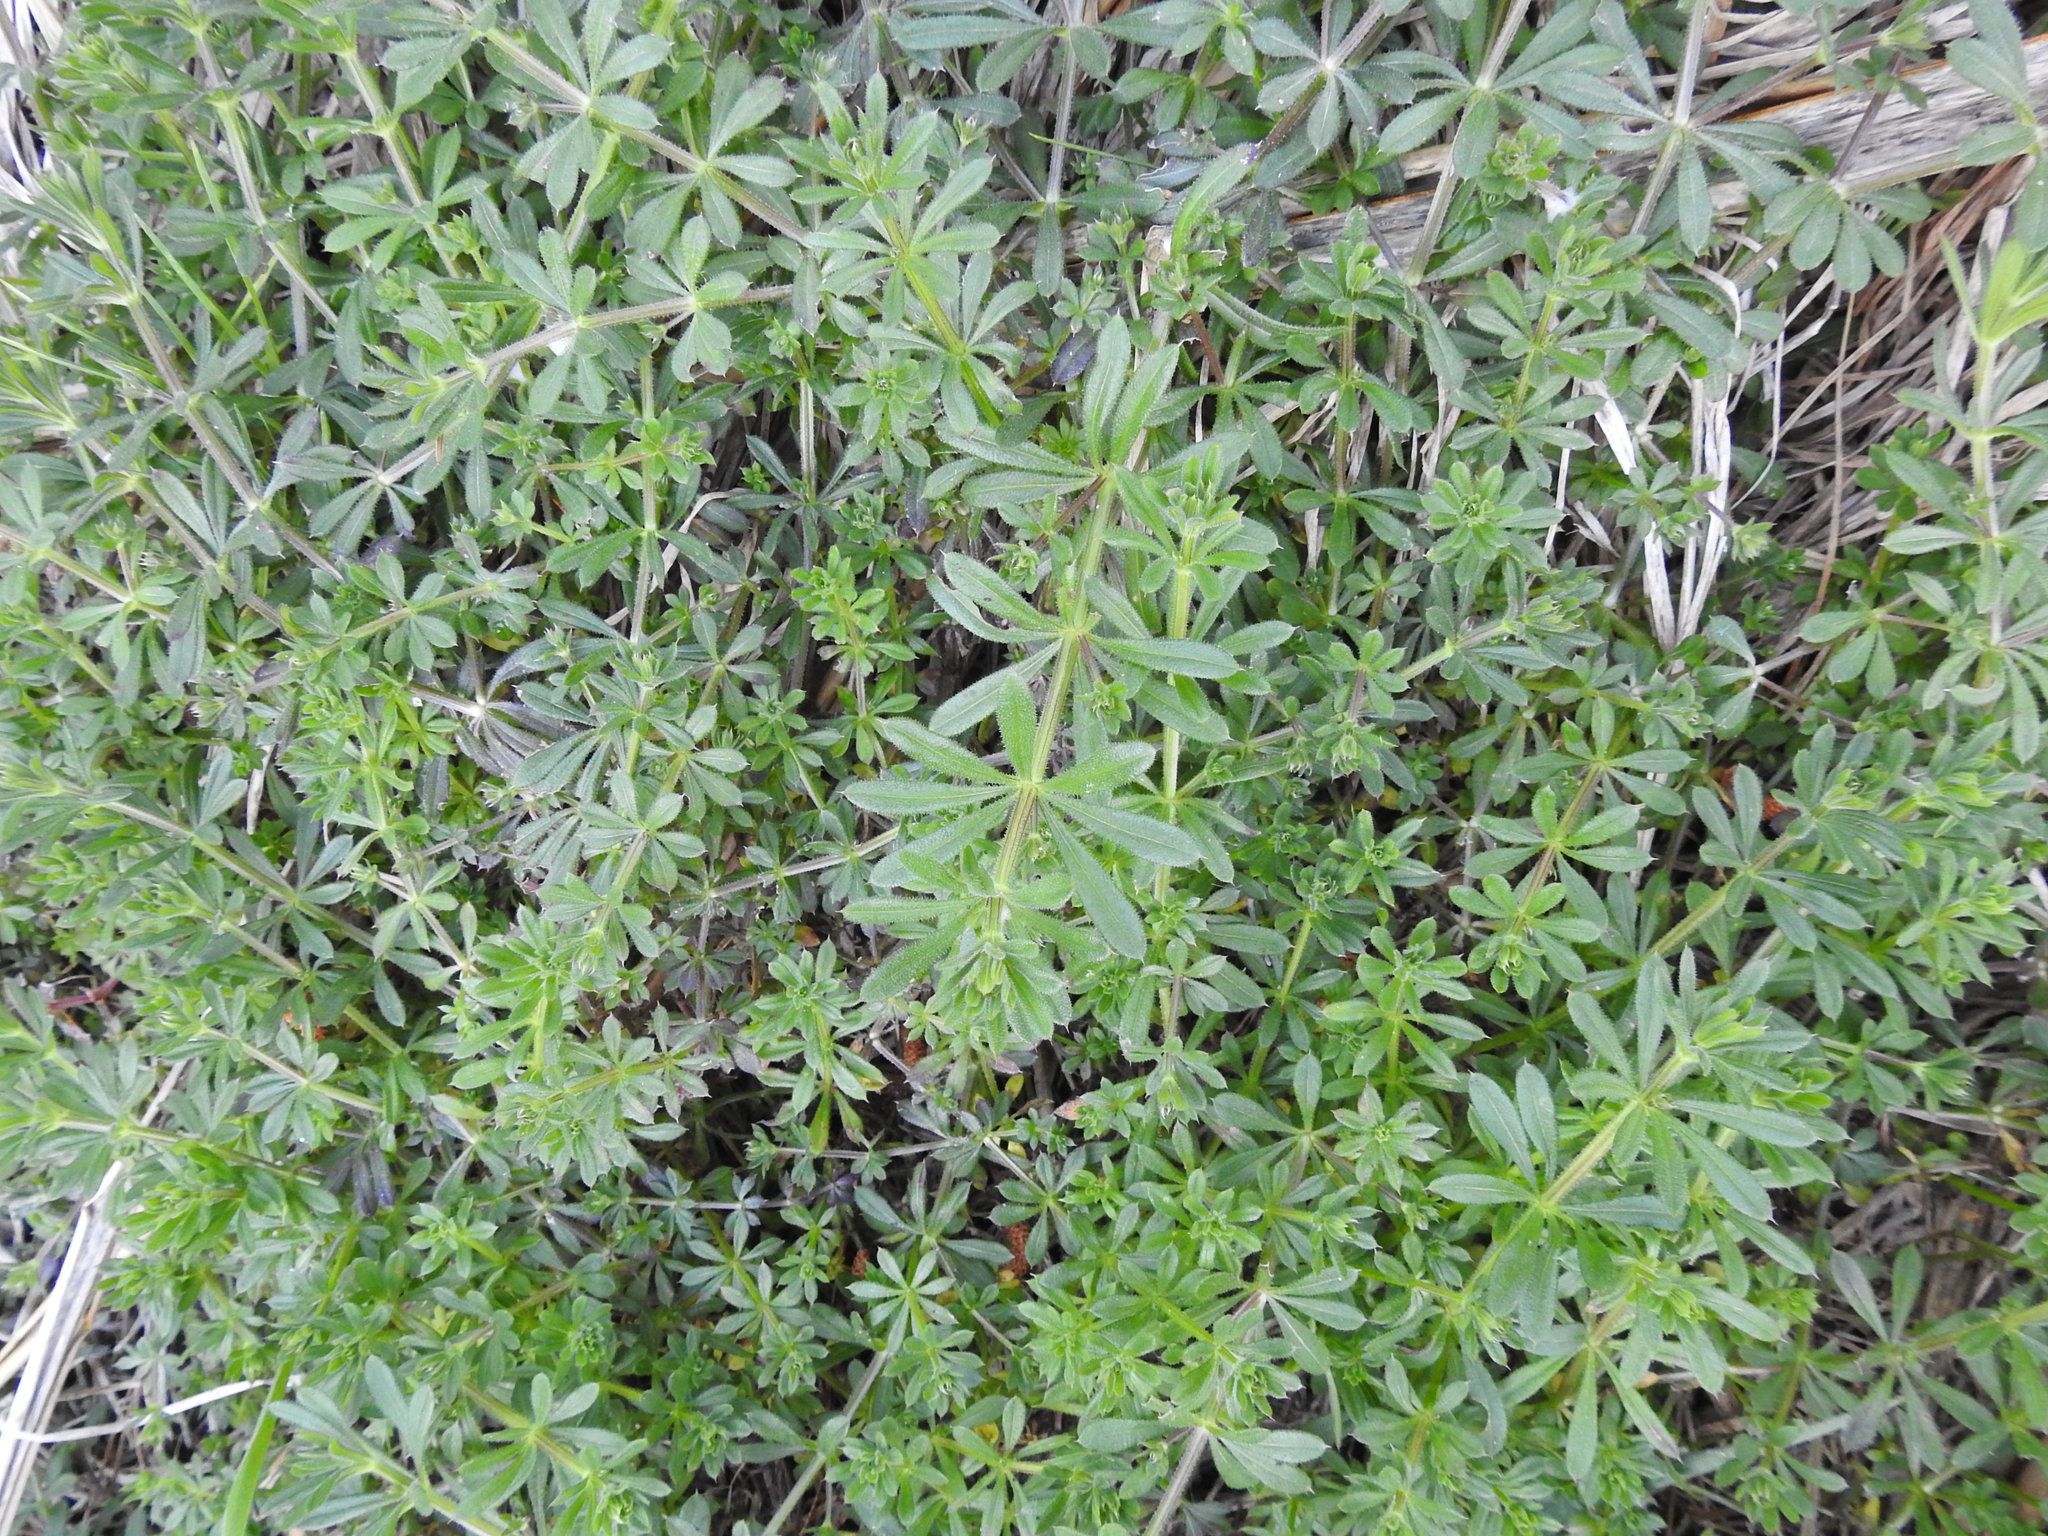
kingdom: Plantae
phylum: Tracheophyta
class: Magnoliopsida
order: Gentianales
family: Rubiaceae
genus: Galium
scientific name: Galium aparine
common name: Cleavers
